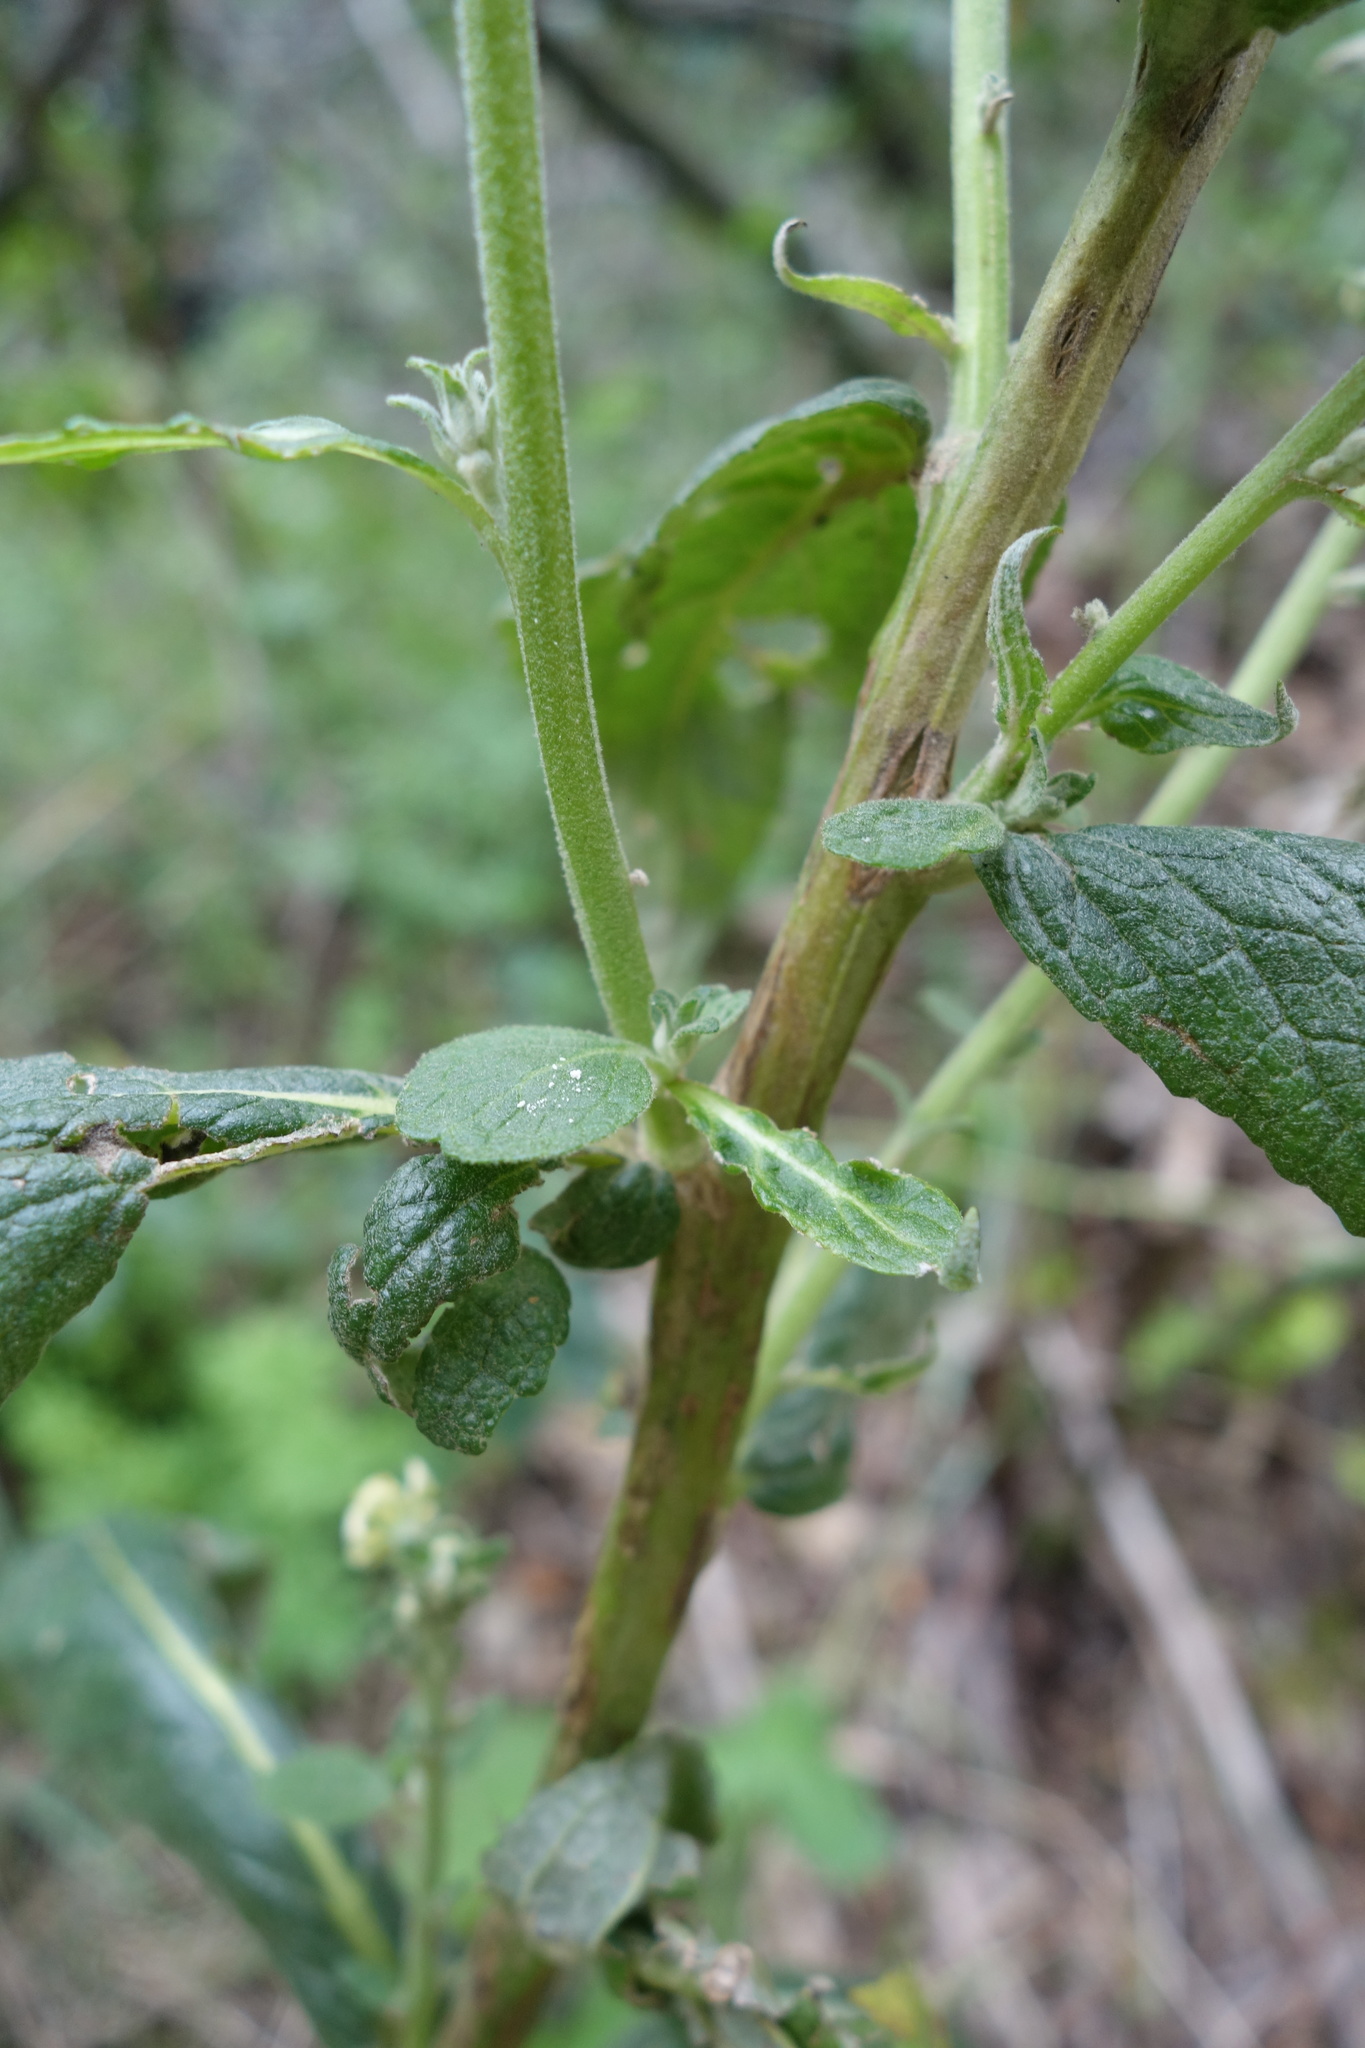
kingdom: Plantae
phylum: Tracheophyta
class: Magnoliopsida
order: Lamiales
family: Scrophulariaceae
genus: Verbascum
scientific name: Verbascum lychnitis
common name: White mullein
